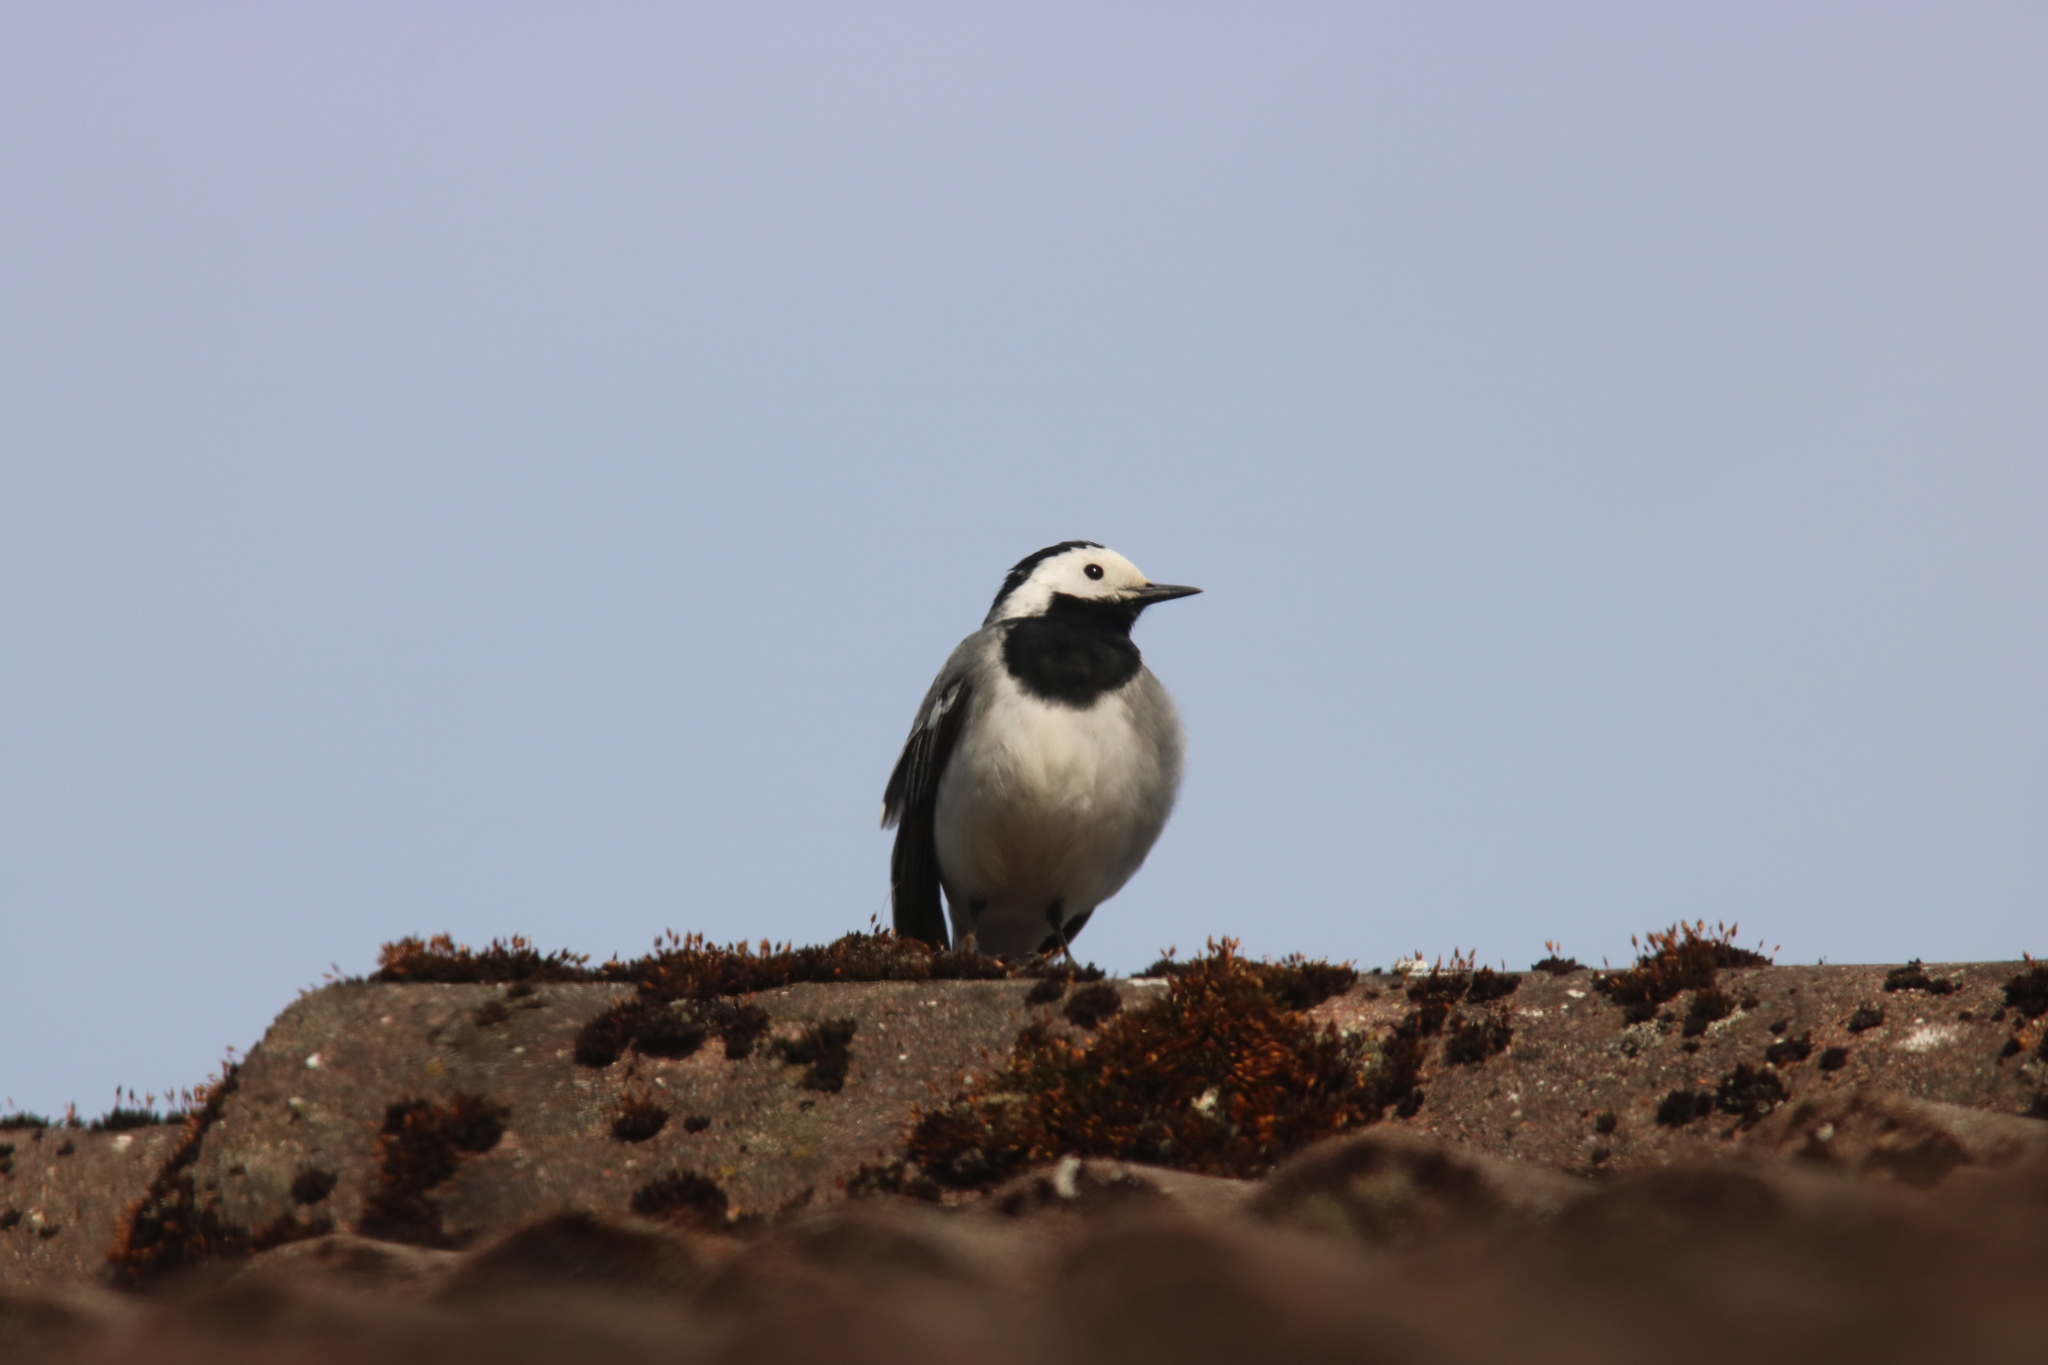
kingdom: Animalia
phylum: Chordata
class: Aves
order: Passeriformes
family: Motacillidae
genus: Motacilla
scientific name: Motacilla alba
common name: White wagtail
